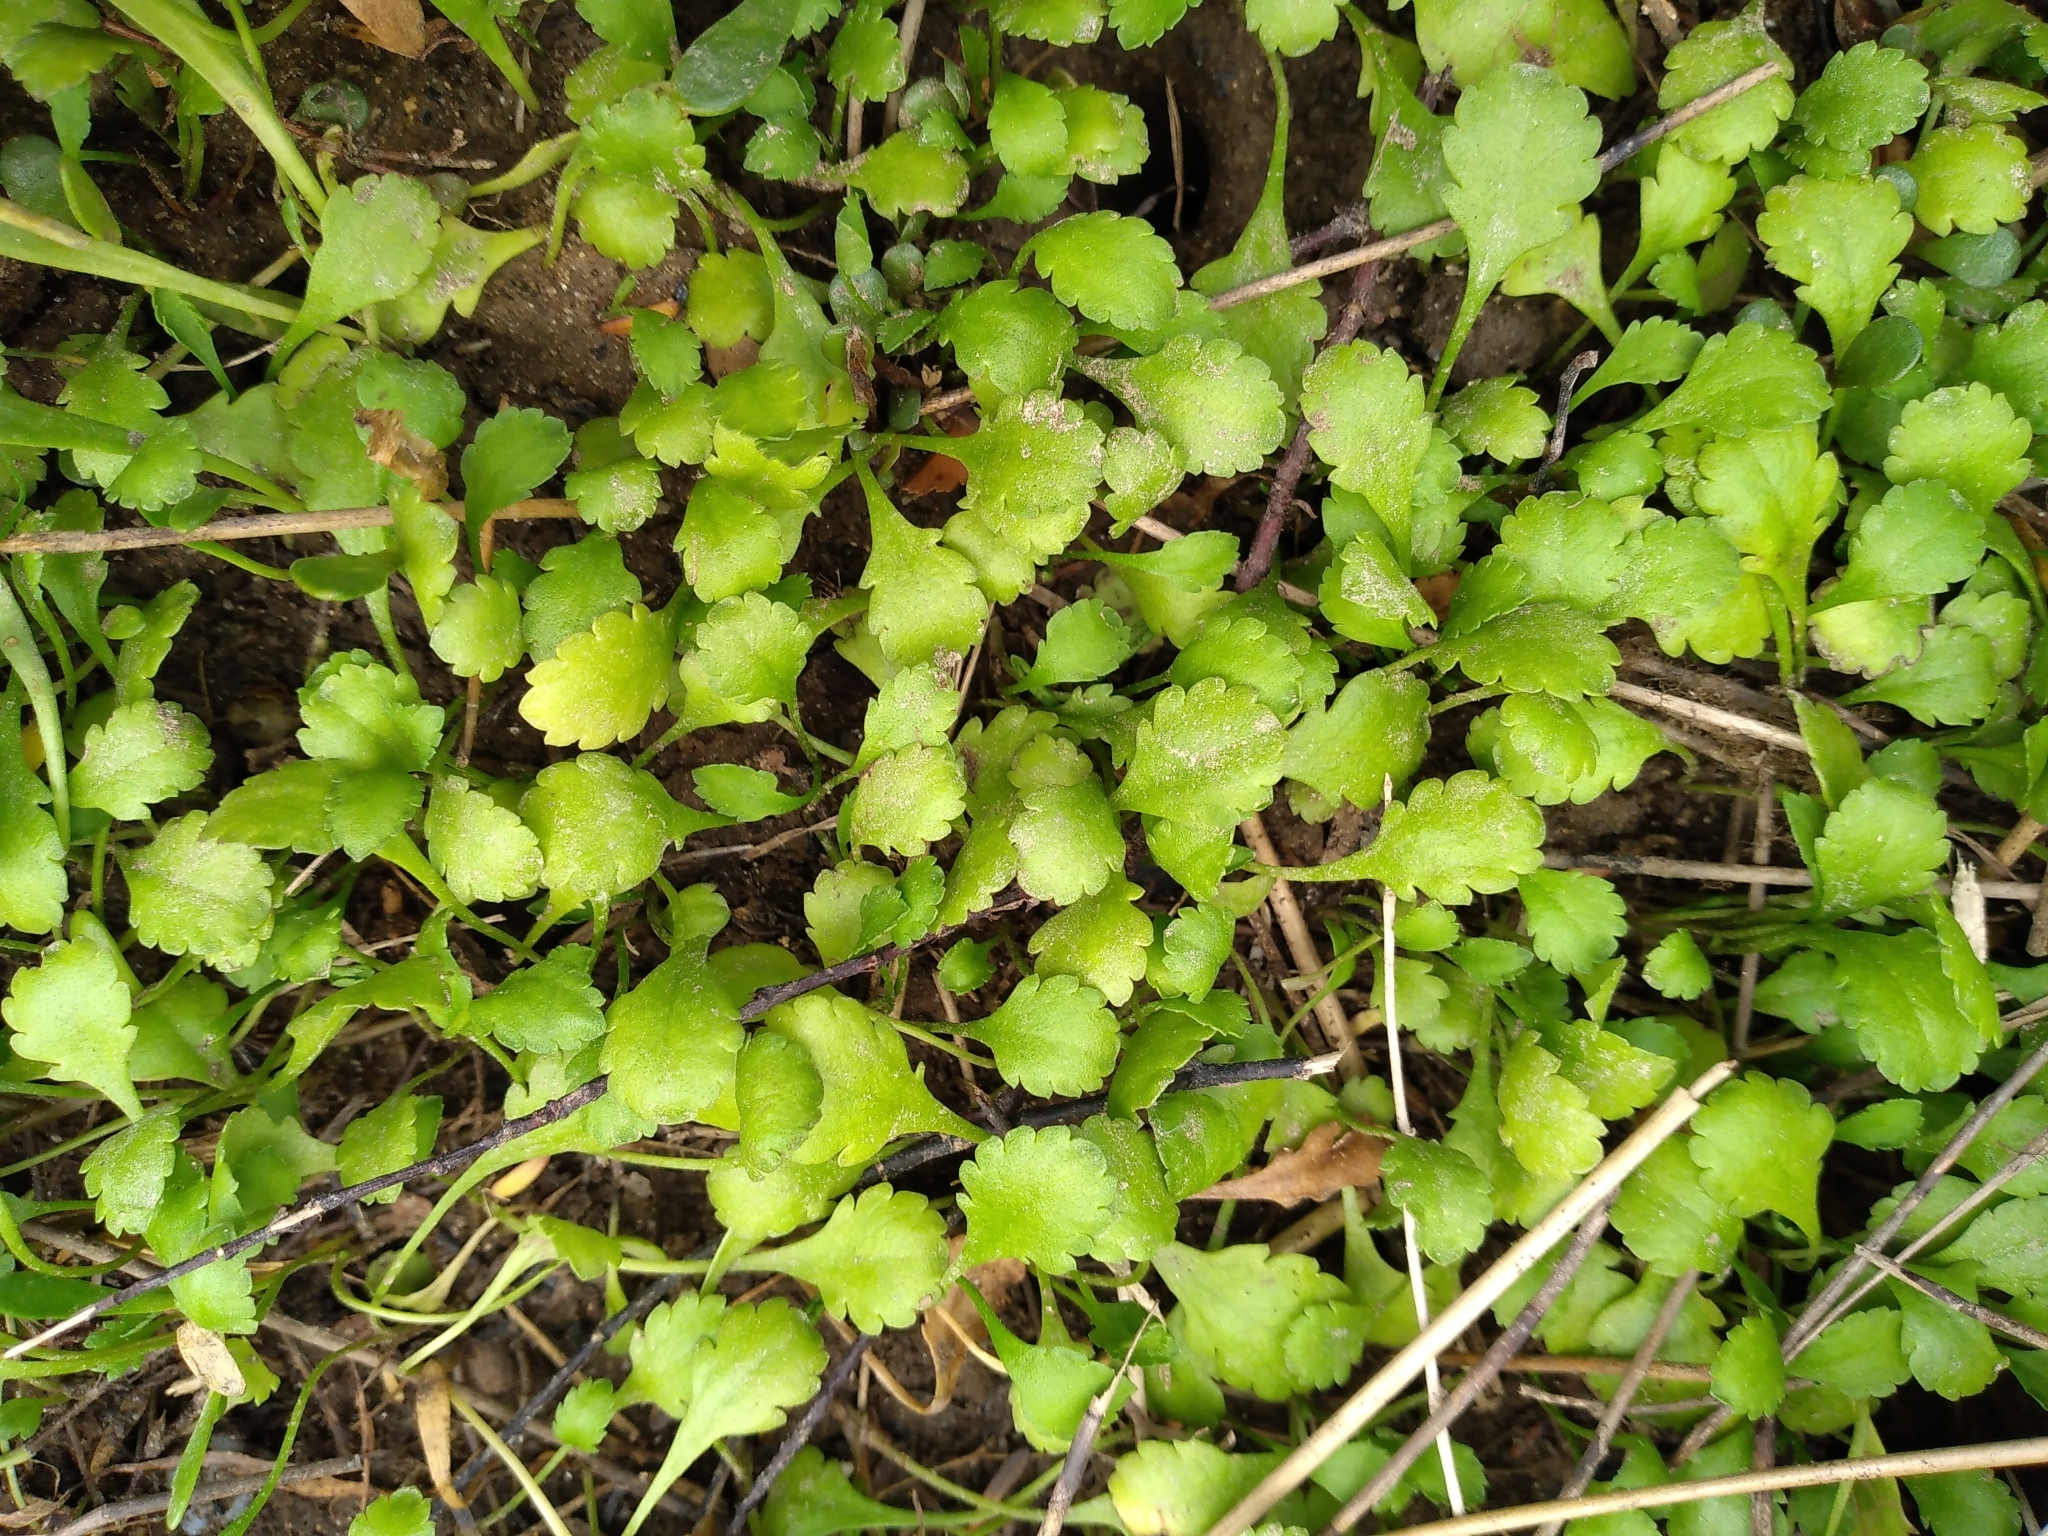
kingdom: Plantae
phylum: Tracheophyta
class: Magnoliopsida
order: Asterales
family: Asteraceae
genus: Leptinella
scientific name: Leptinella dioica
